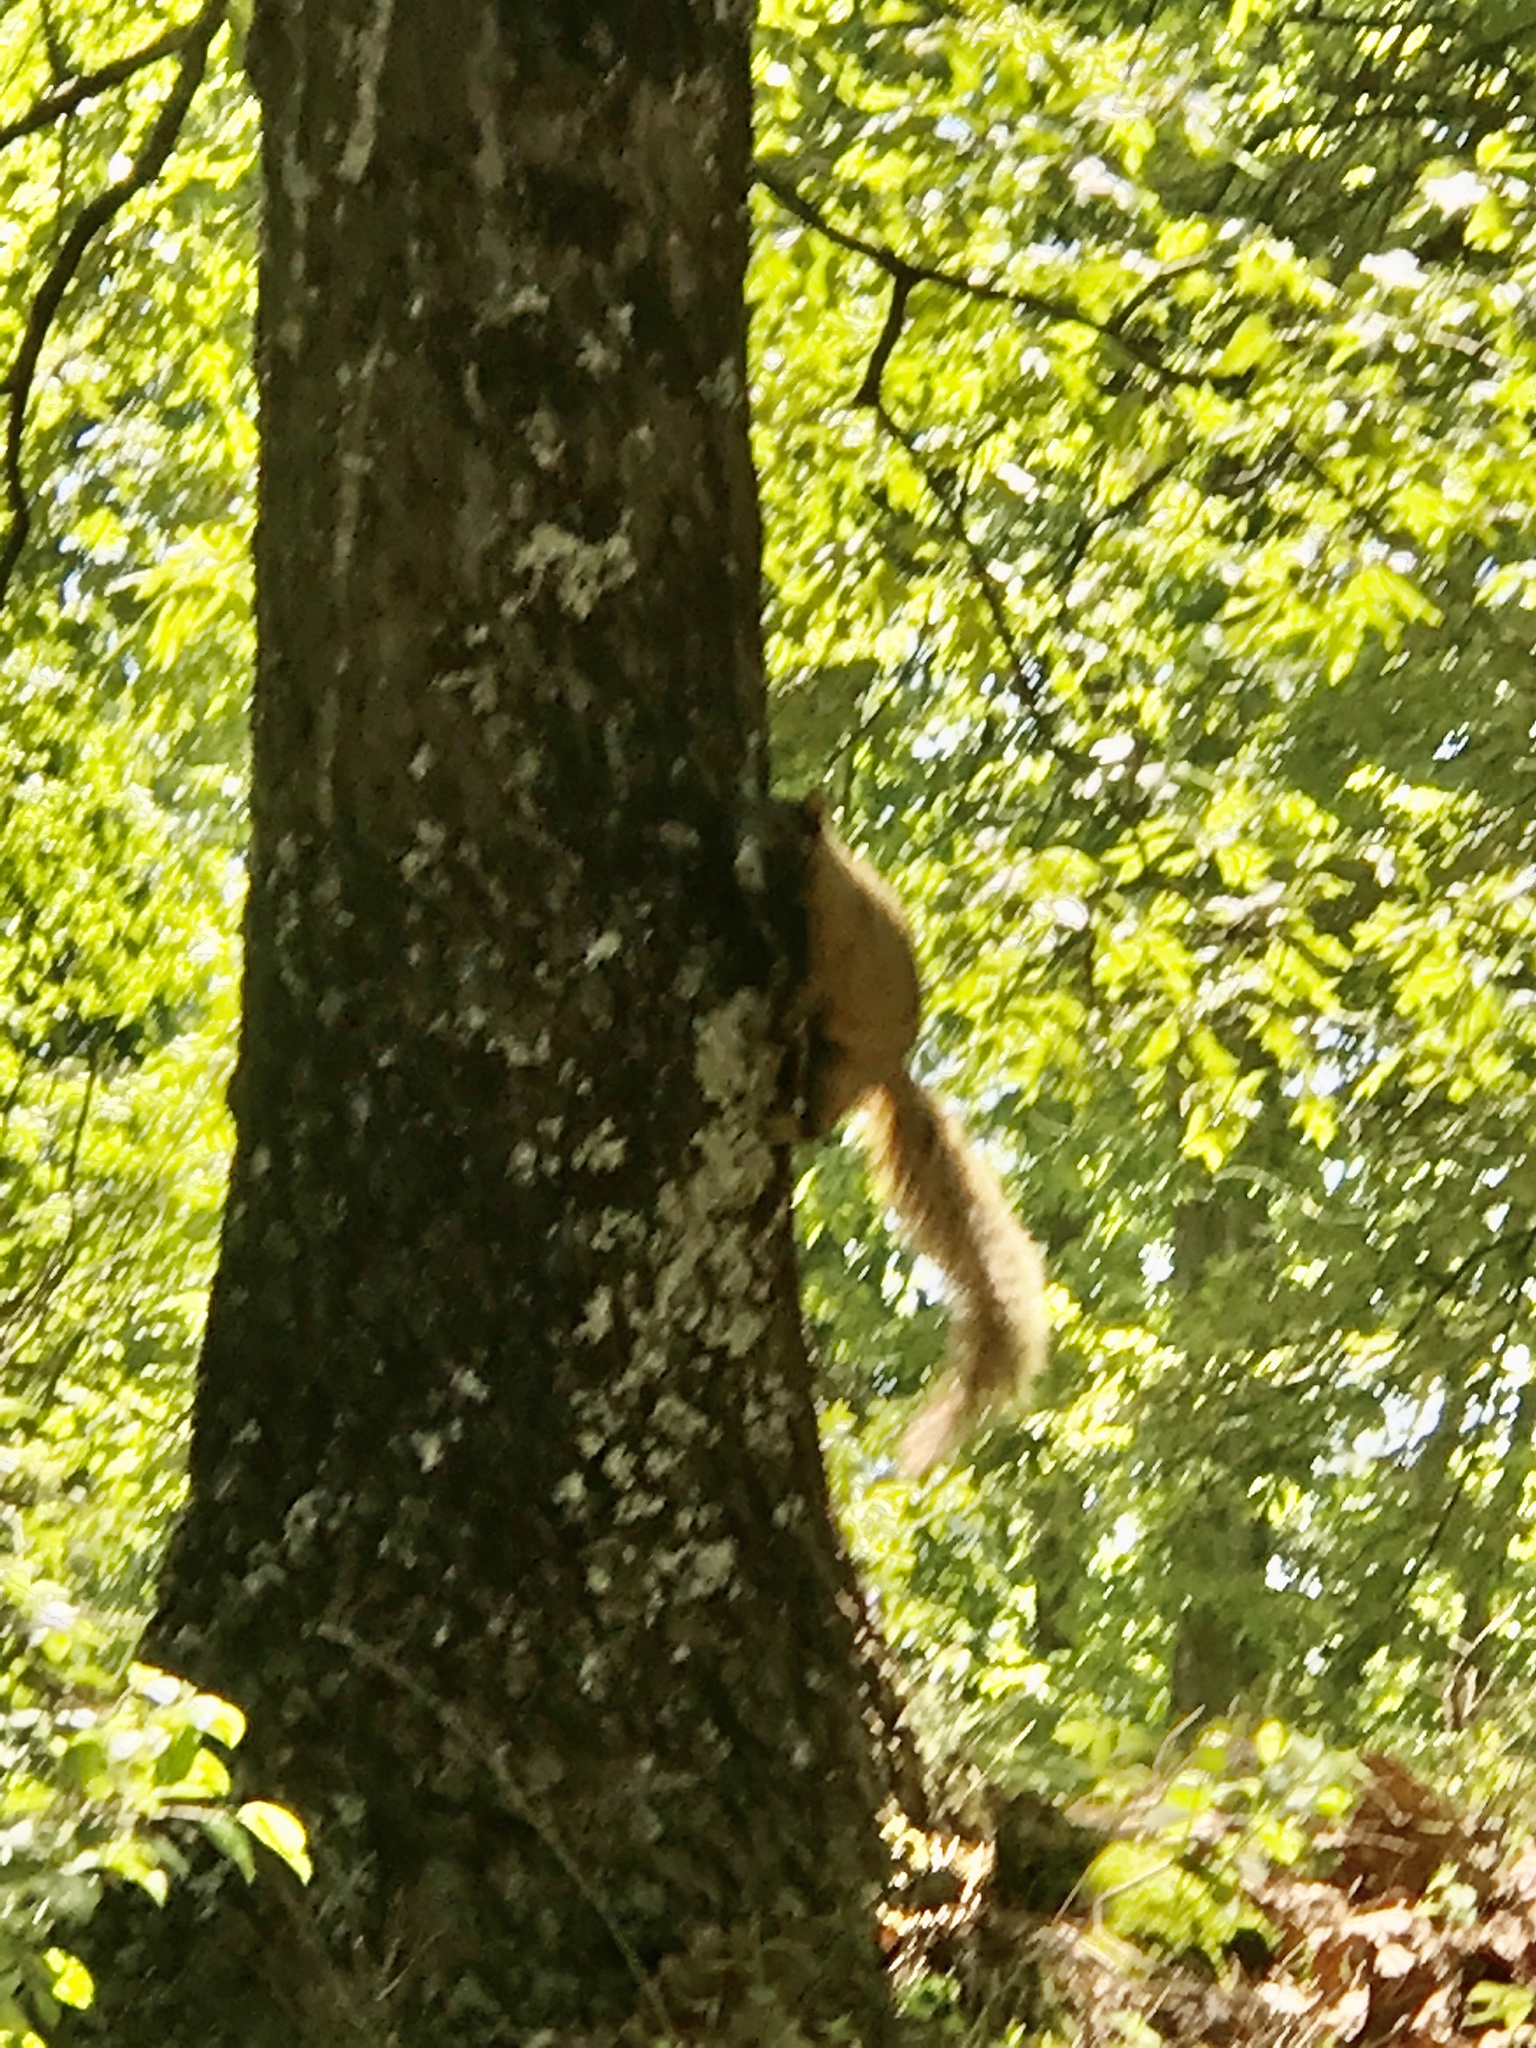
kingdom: Animalia
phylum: Chordata
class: Mammalia
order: Rodentia
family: Sciuridae
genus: Sciurus
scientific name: Sciurus niger
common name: Fox squirrel
